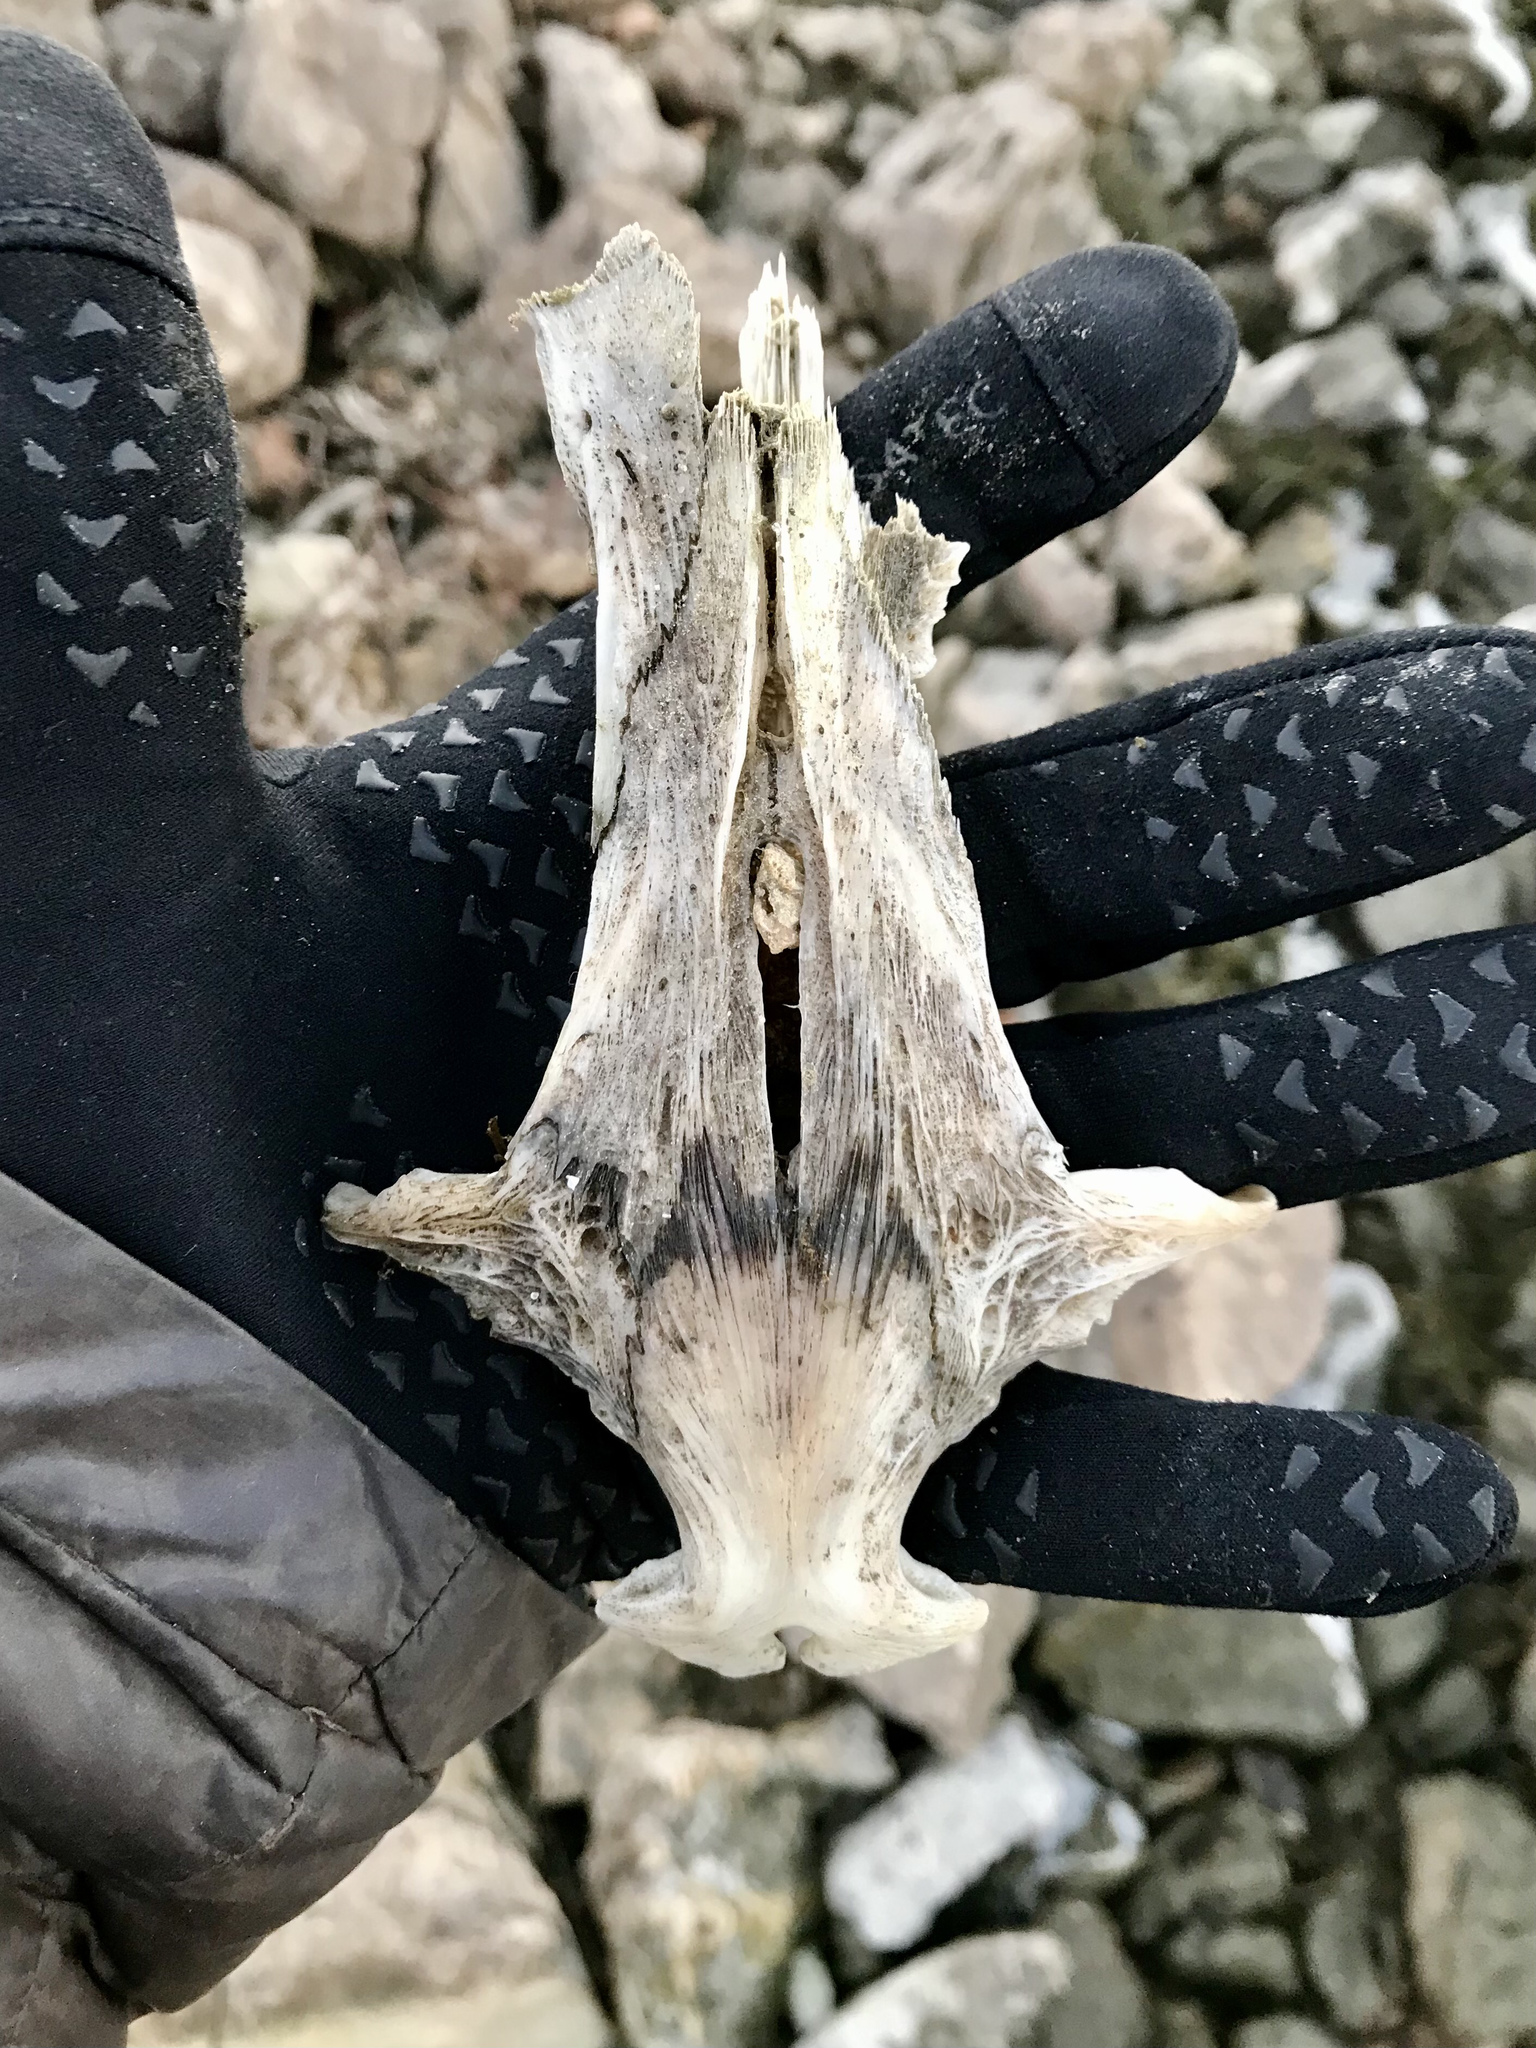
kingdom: Animalia
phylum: Chordata
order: Siluriformes
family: Ictaluridae
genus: Ictalurus
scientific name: Ictalurus punctatus
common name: Channel catfish
